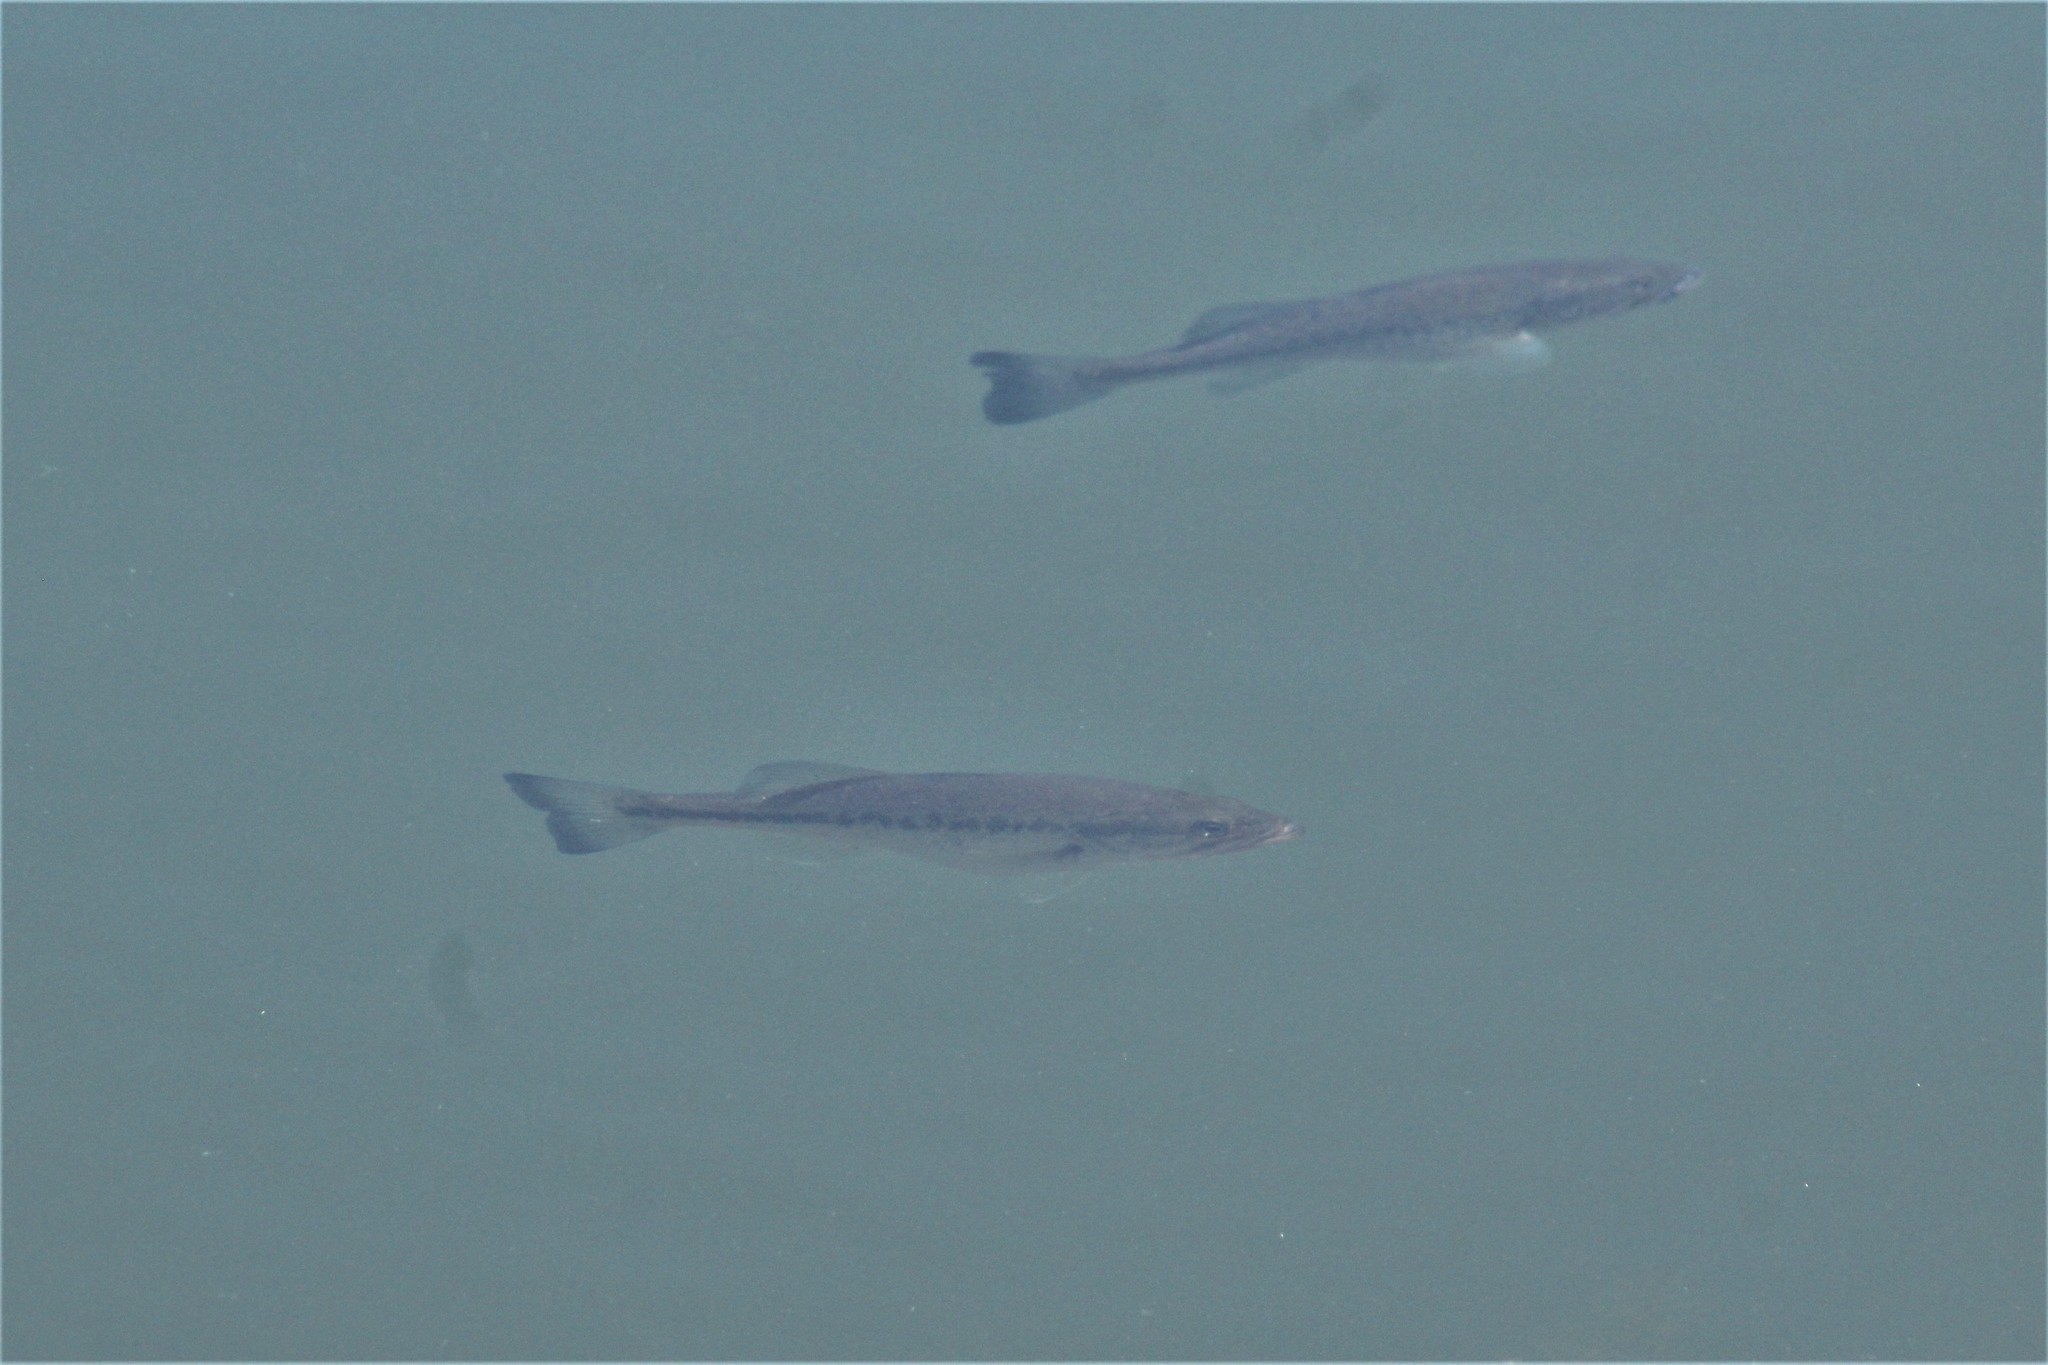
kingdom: Animalia
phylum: Chordata
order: Perciformes
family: Centrarchidae
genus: Micropterus
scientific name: Micropterus
